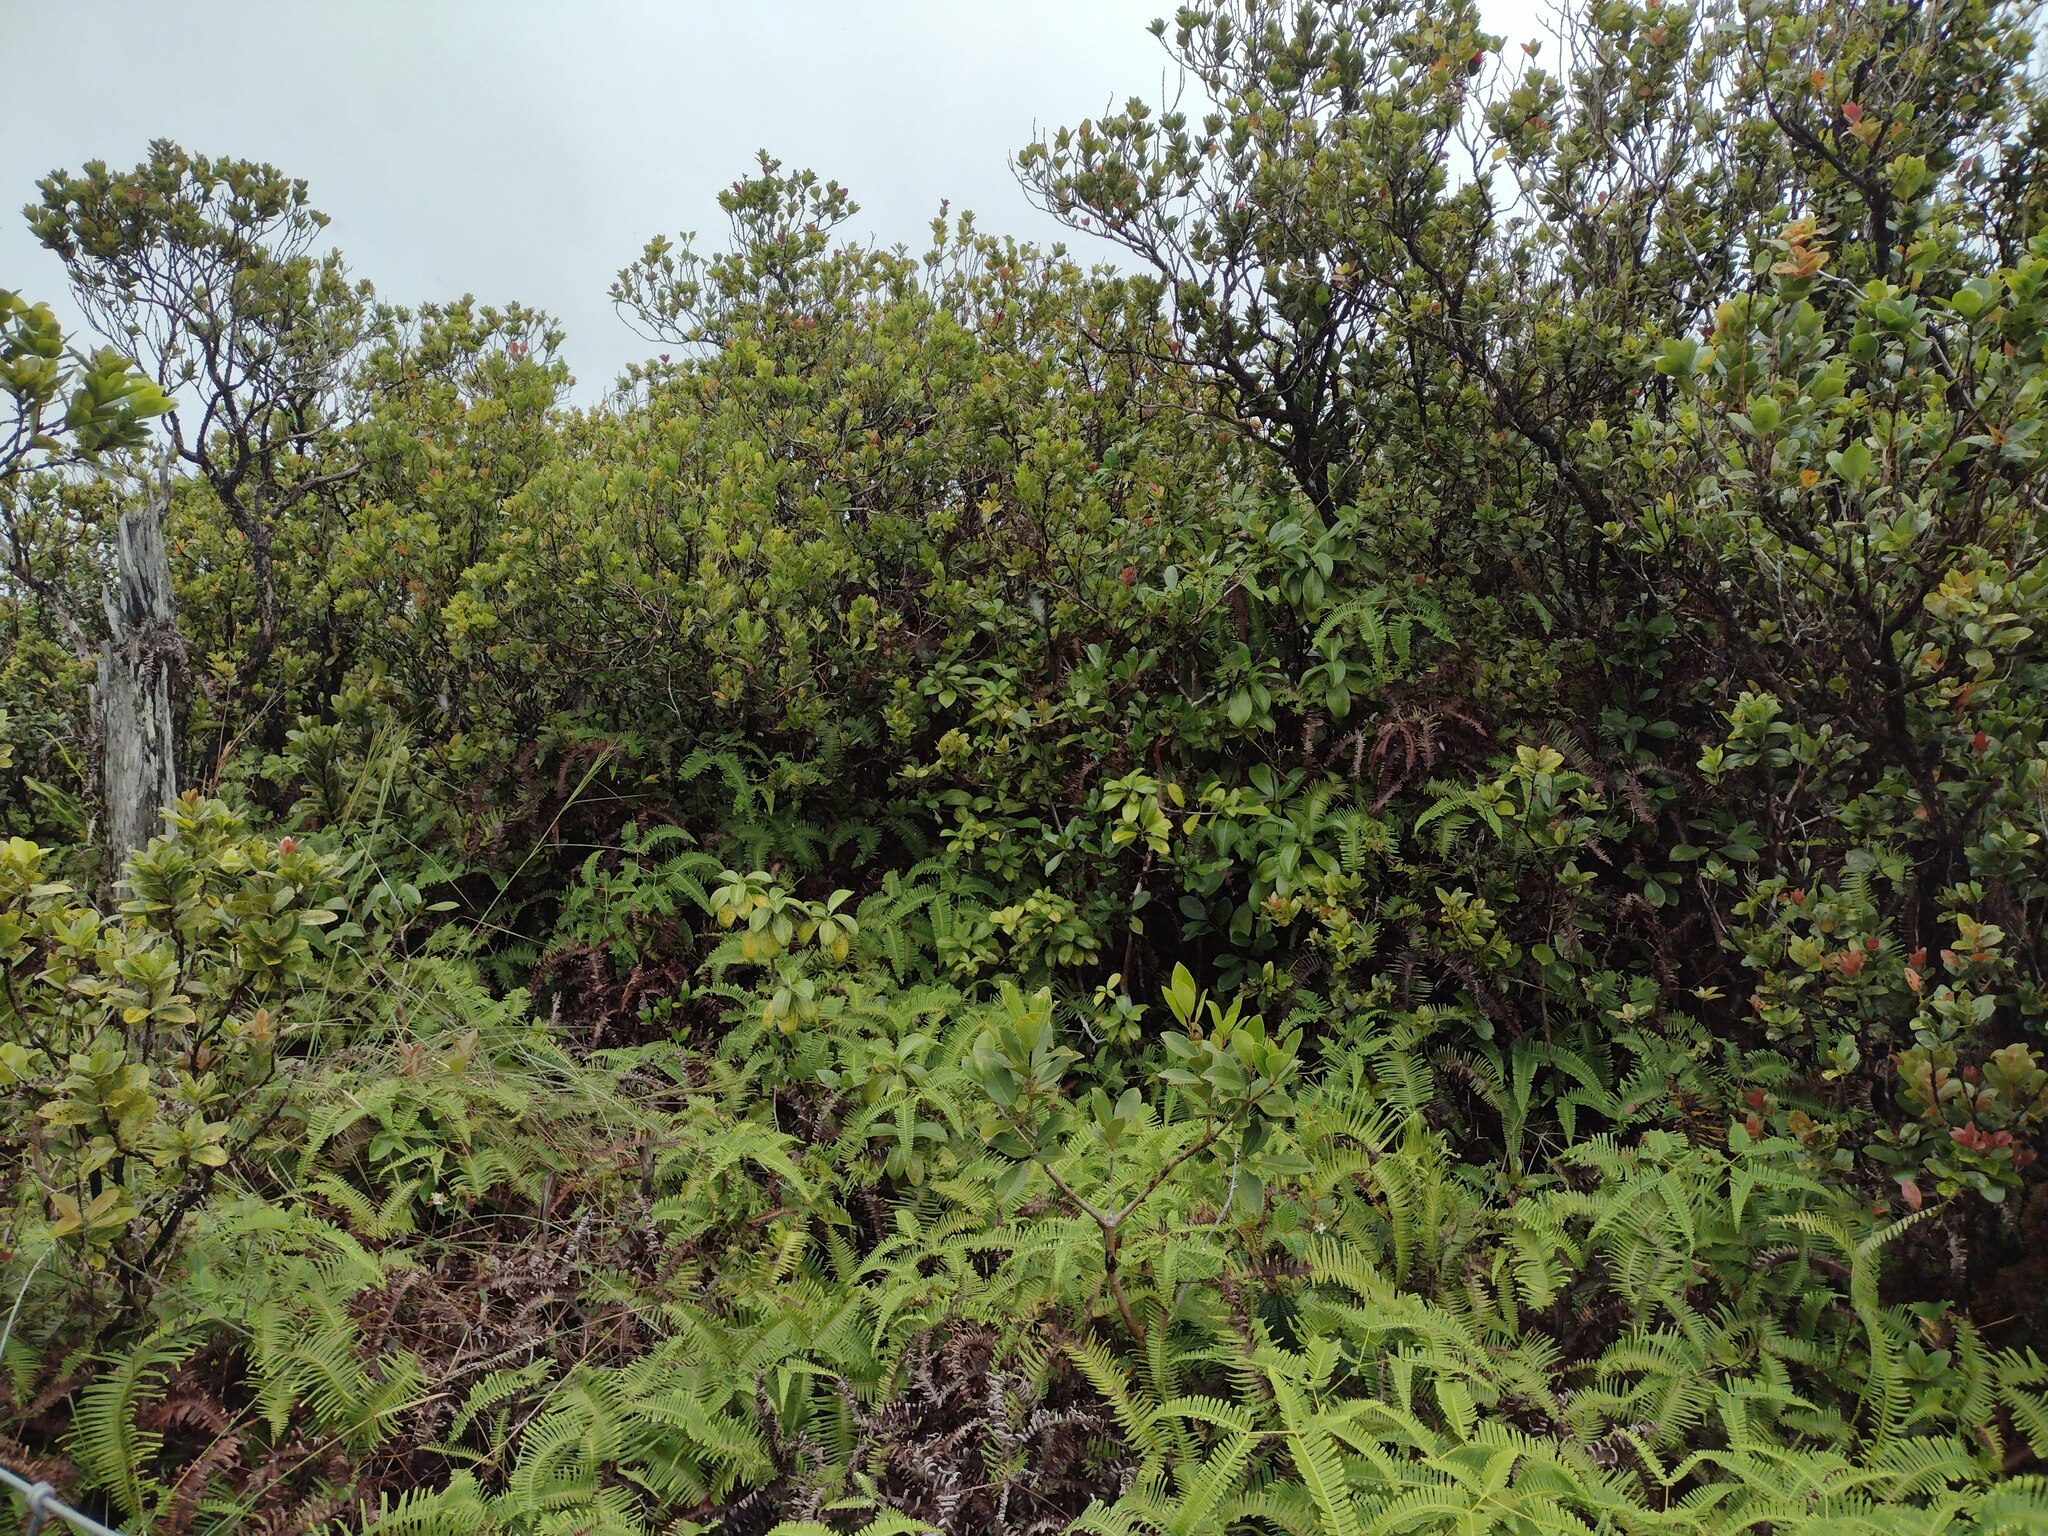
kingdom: Plantae
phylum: Tracheophyta
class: Magnoliopsida
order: Myrtales
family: Myrtaceae
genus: Metrosideros
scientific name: Metrosideros polymorpha
